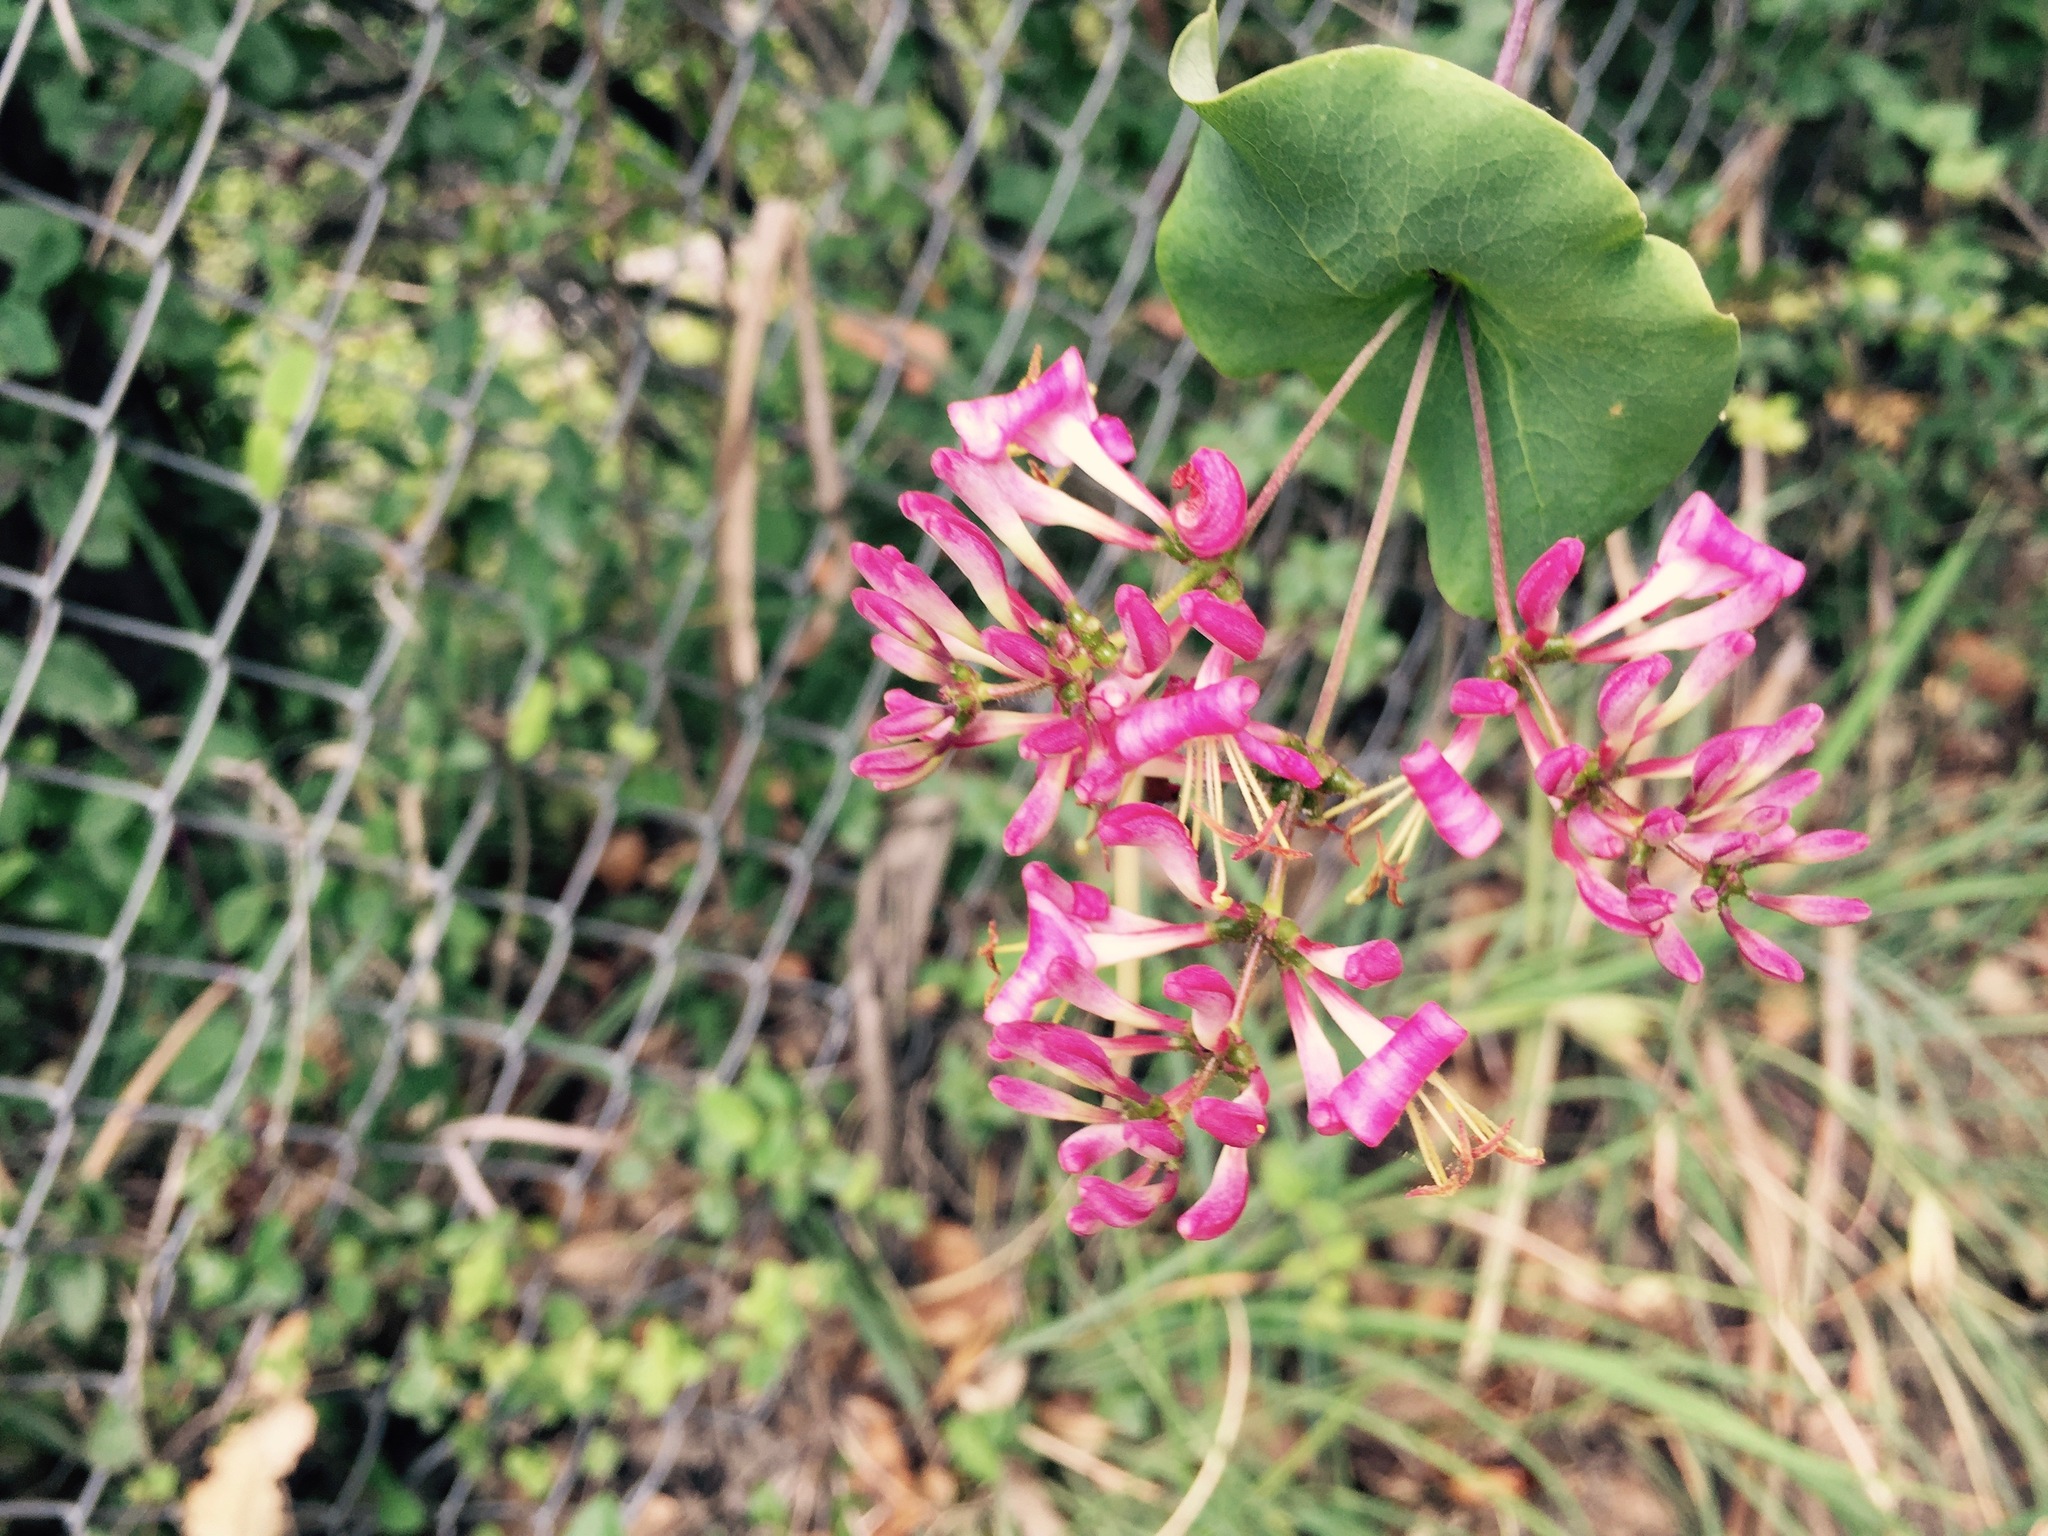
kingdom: Plantae
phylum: Tracheophyta
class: Magnoliopsida
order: Dipsacales
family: Caprifoliaceae
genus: Lonicera
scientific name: Lonicera hispidula
